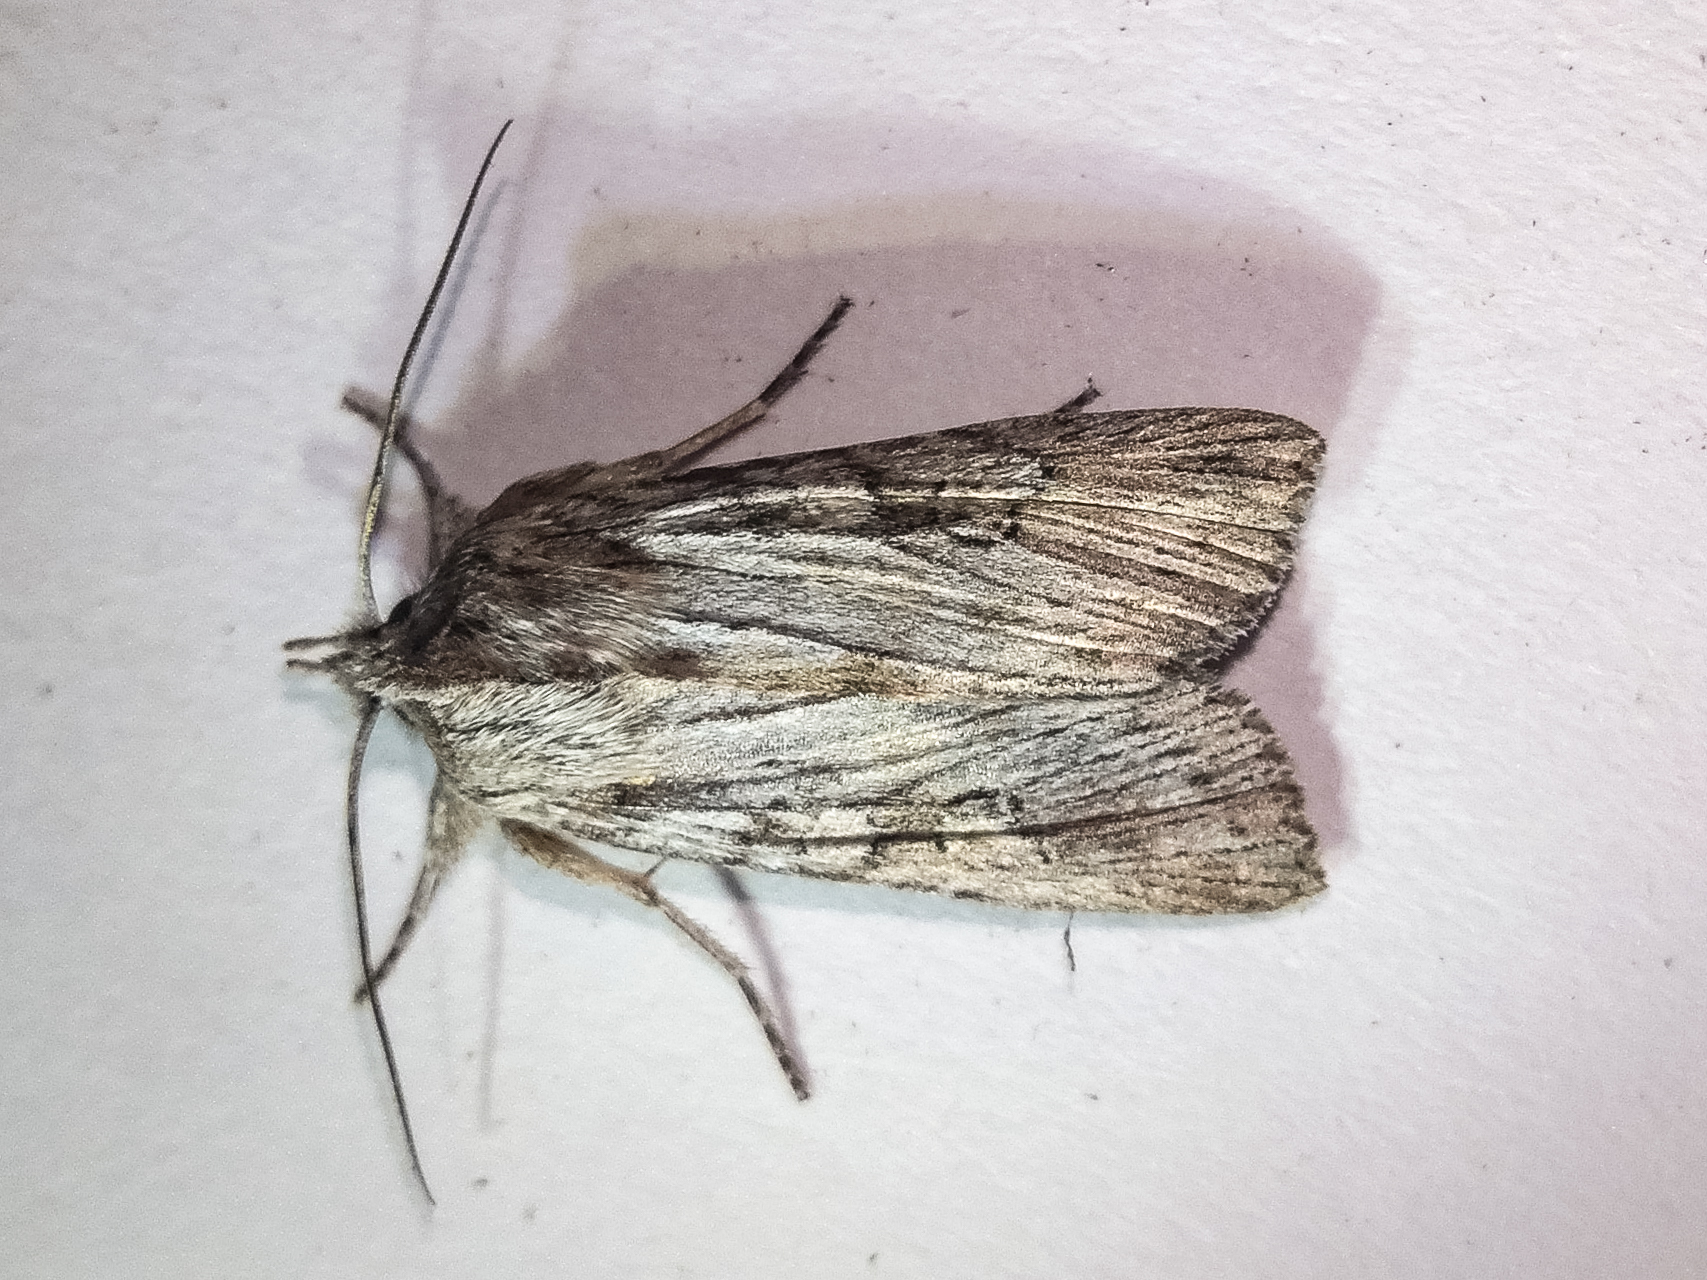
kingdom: Animalia
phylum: Arthropoda
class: Insecta
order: Lepidoptera
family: Noctuidae
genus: Physetica
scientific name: Physetica phricias
